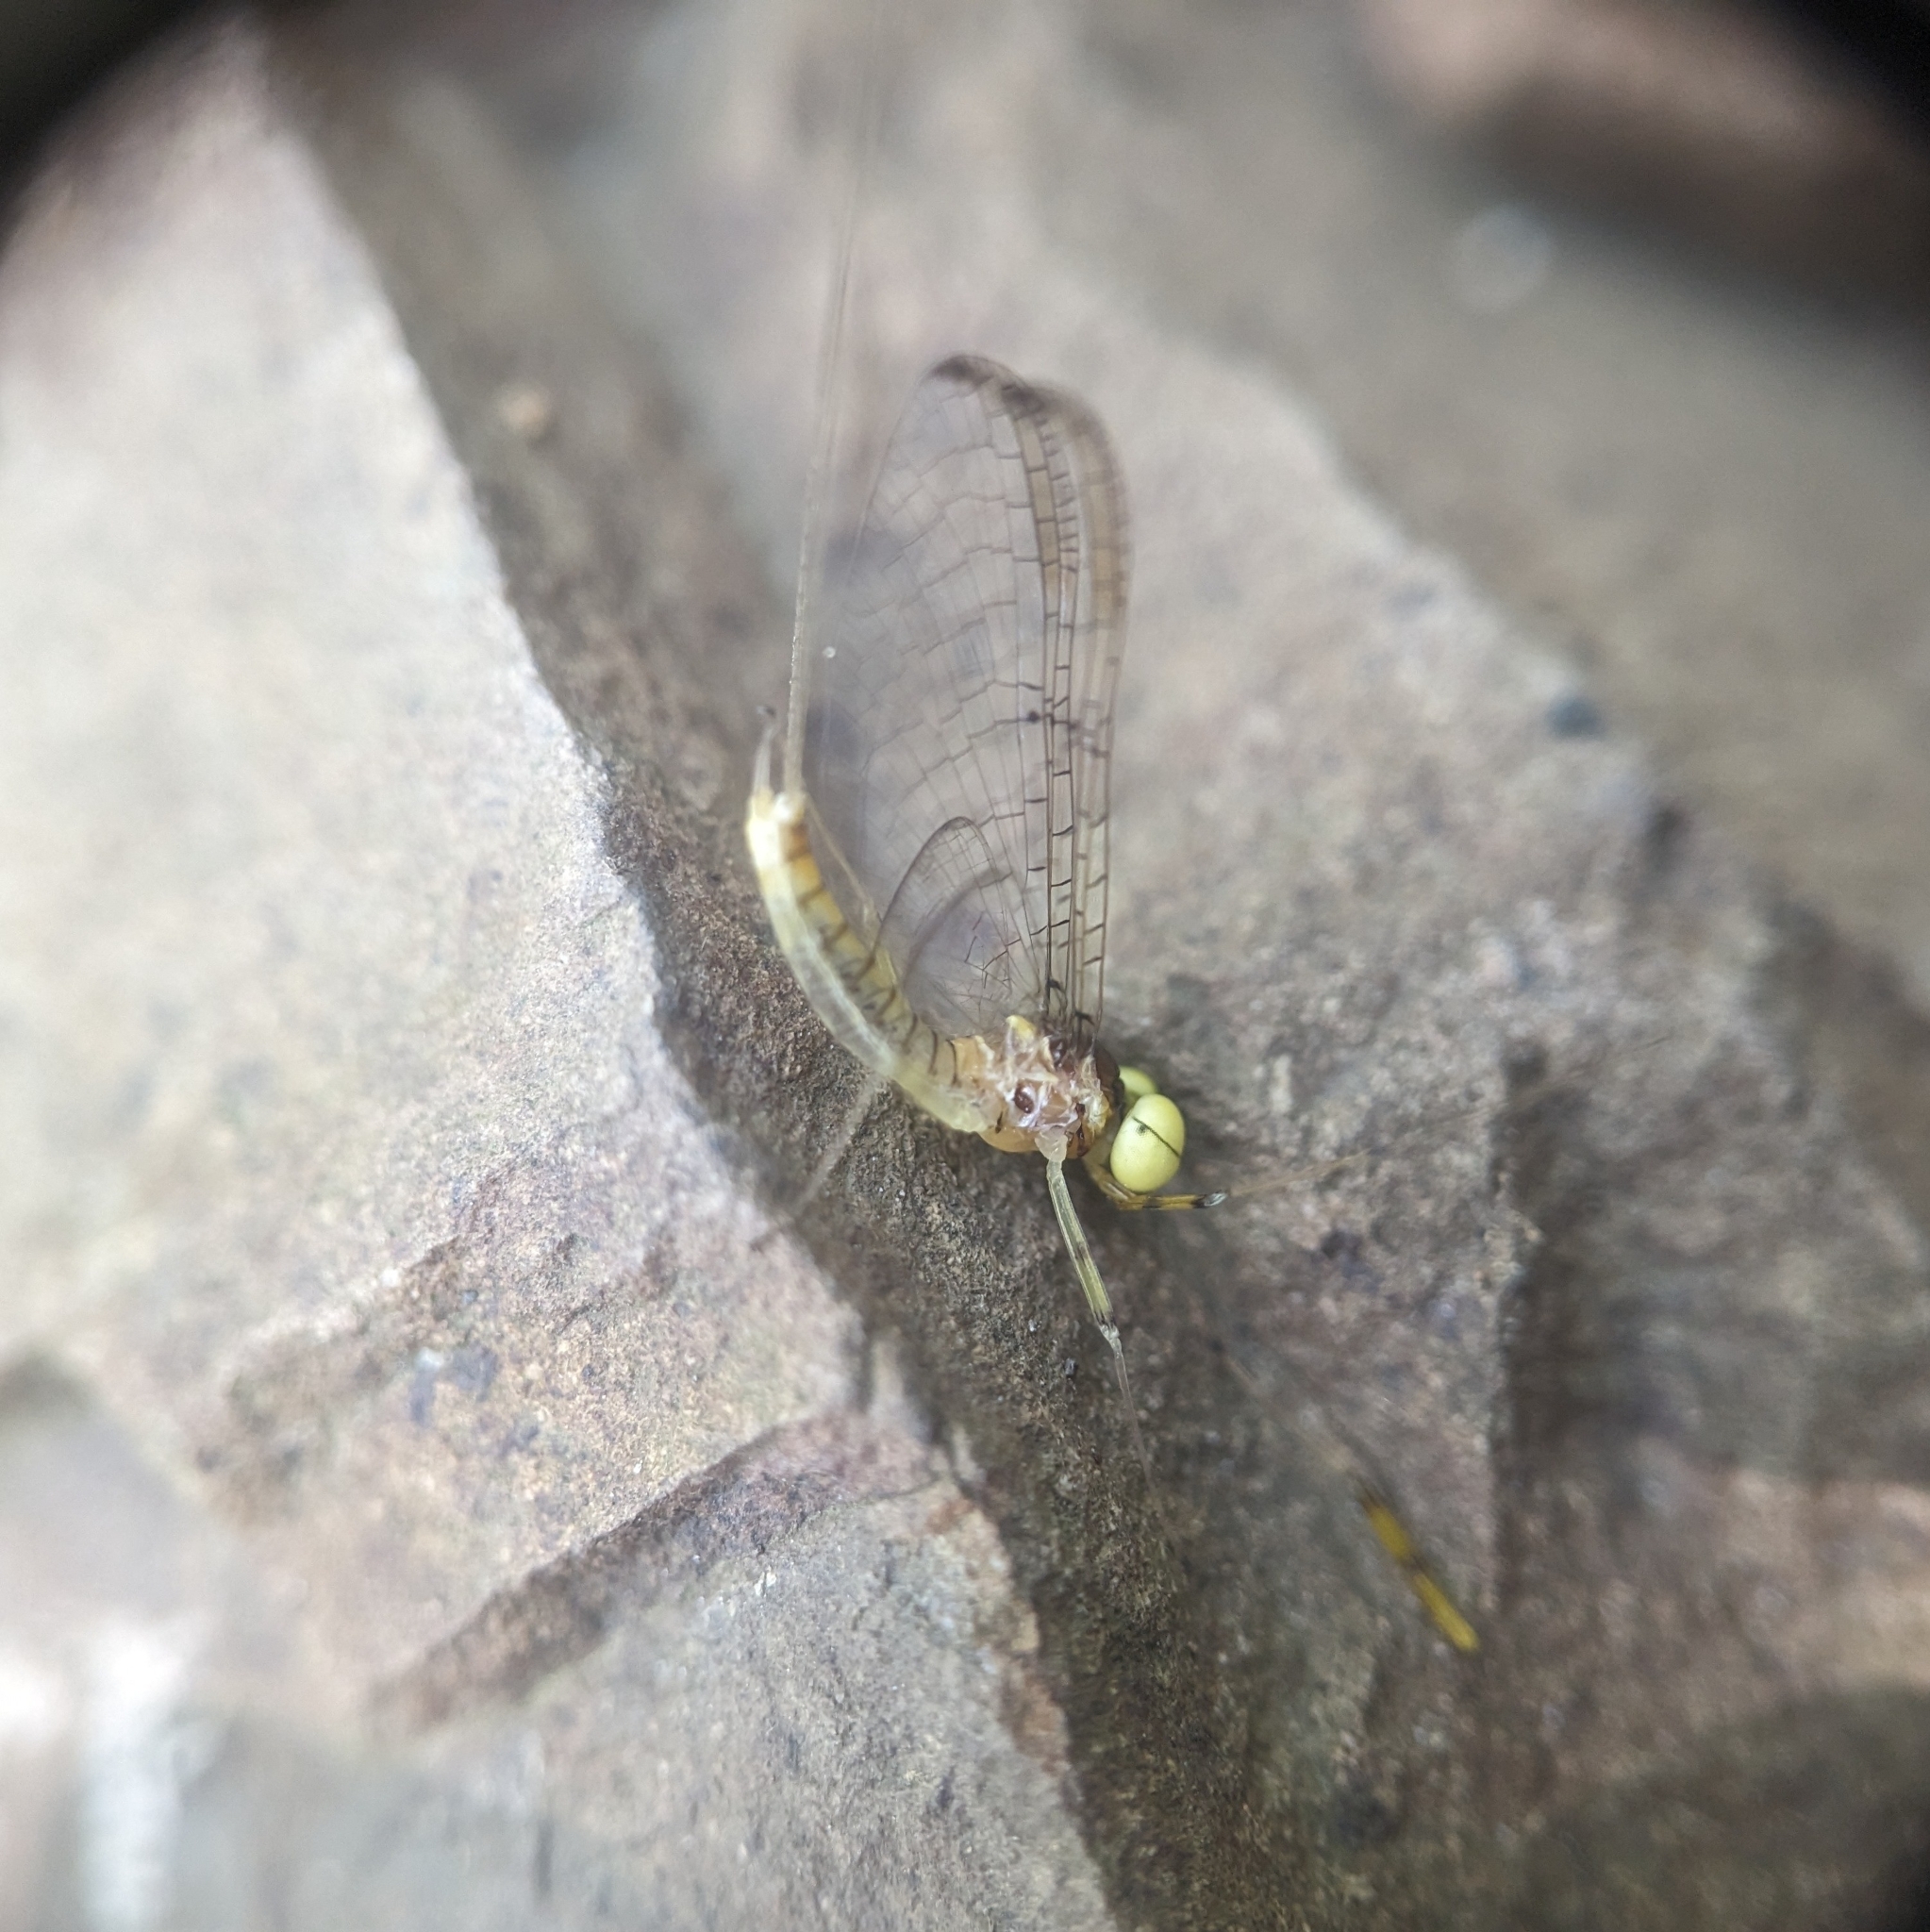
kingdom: Animalia
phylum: Arthropoda
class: Insecta
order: Ephemeroptera
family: Heptageniidae
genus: Stenacron
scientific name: Stenacron interpunctatum
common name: Orange cahill
